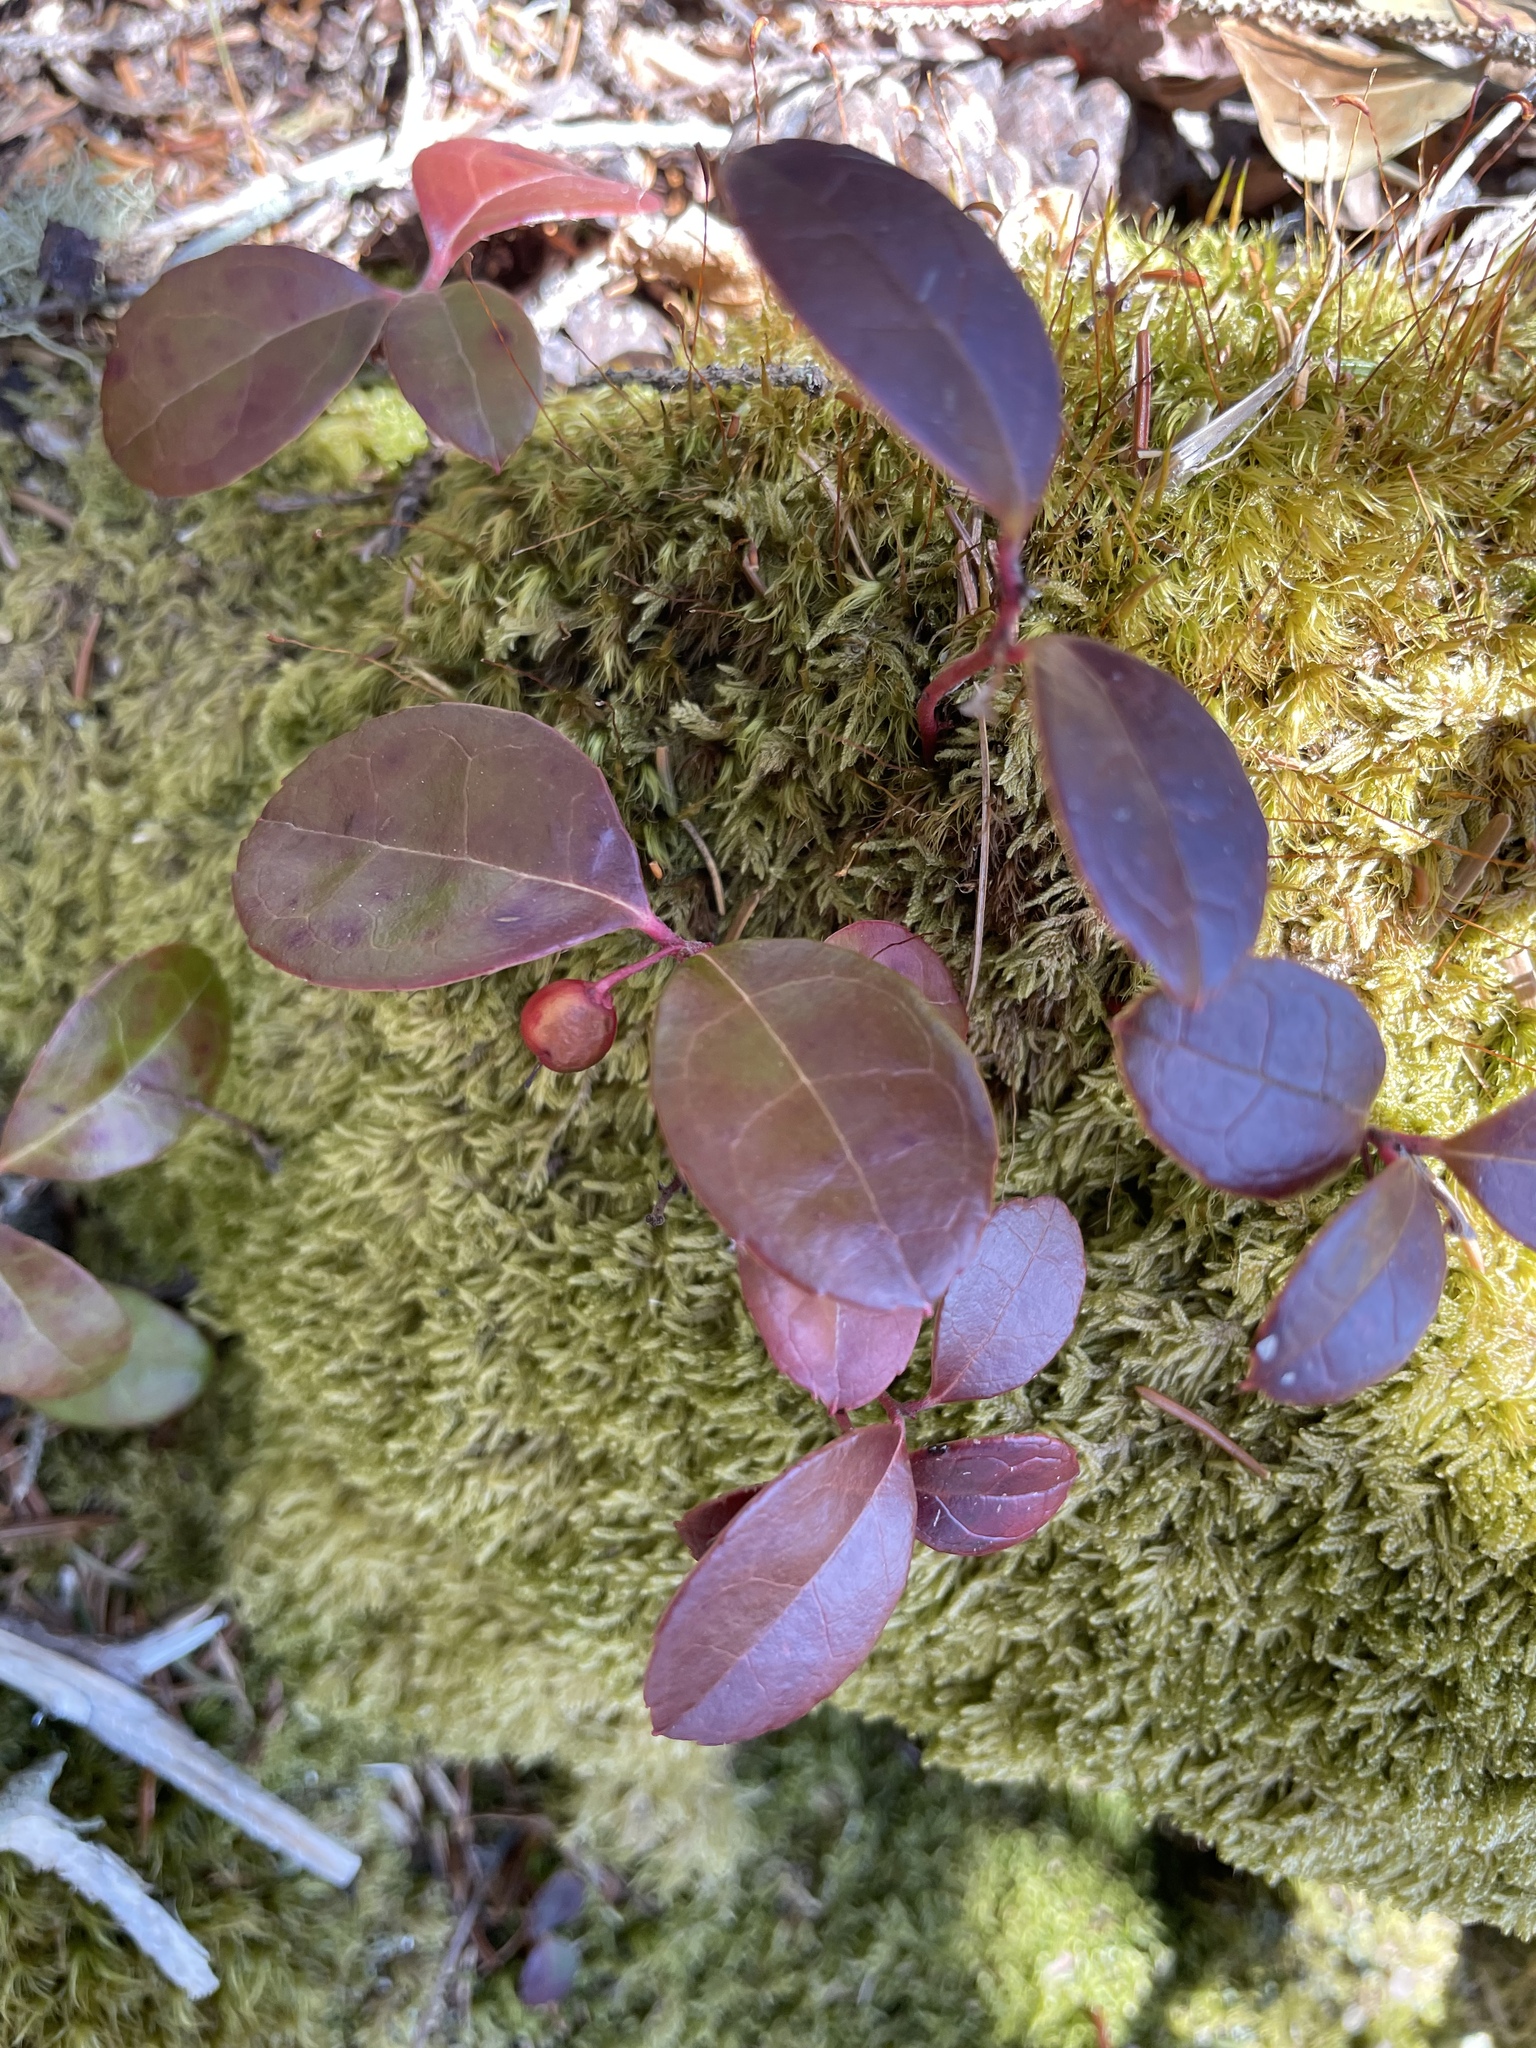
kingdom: Plantae
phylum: Tracheophyta
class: Magnoliopsida
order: Ericales
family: Ericaceae
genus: Gaultheria
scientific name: Gaultheria procumbens
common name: Checkerberry
